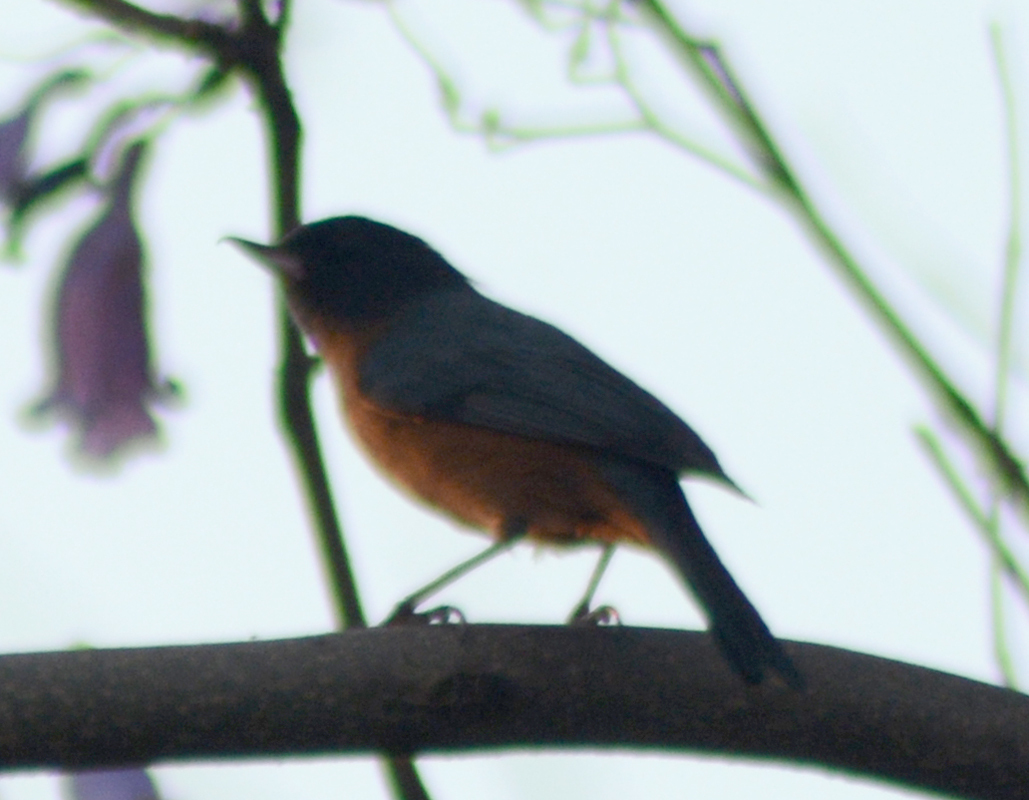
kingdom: Animalia
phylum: Chordata
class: Aves
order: Passeriformes
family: Thraupidae
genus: Diglossa
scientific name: Diglossa baritula
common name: Cinnamon-bellied flowerpiercer
